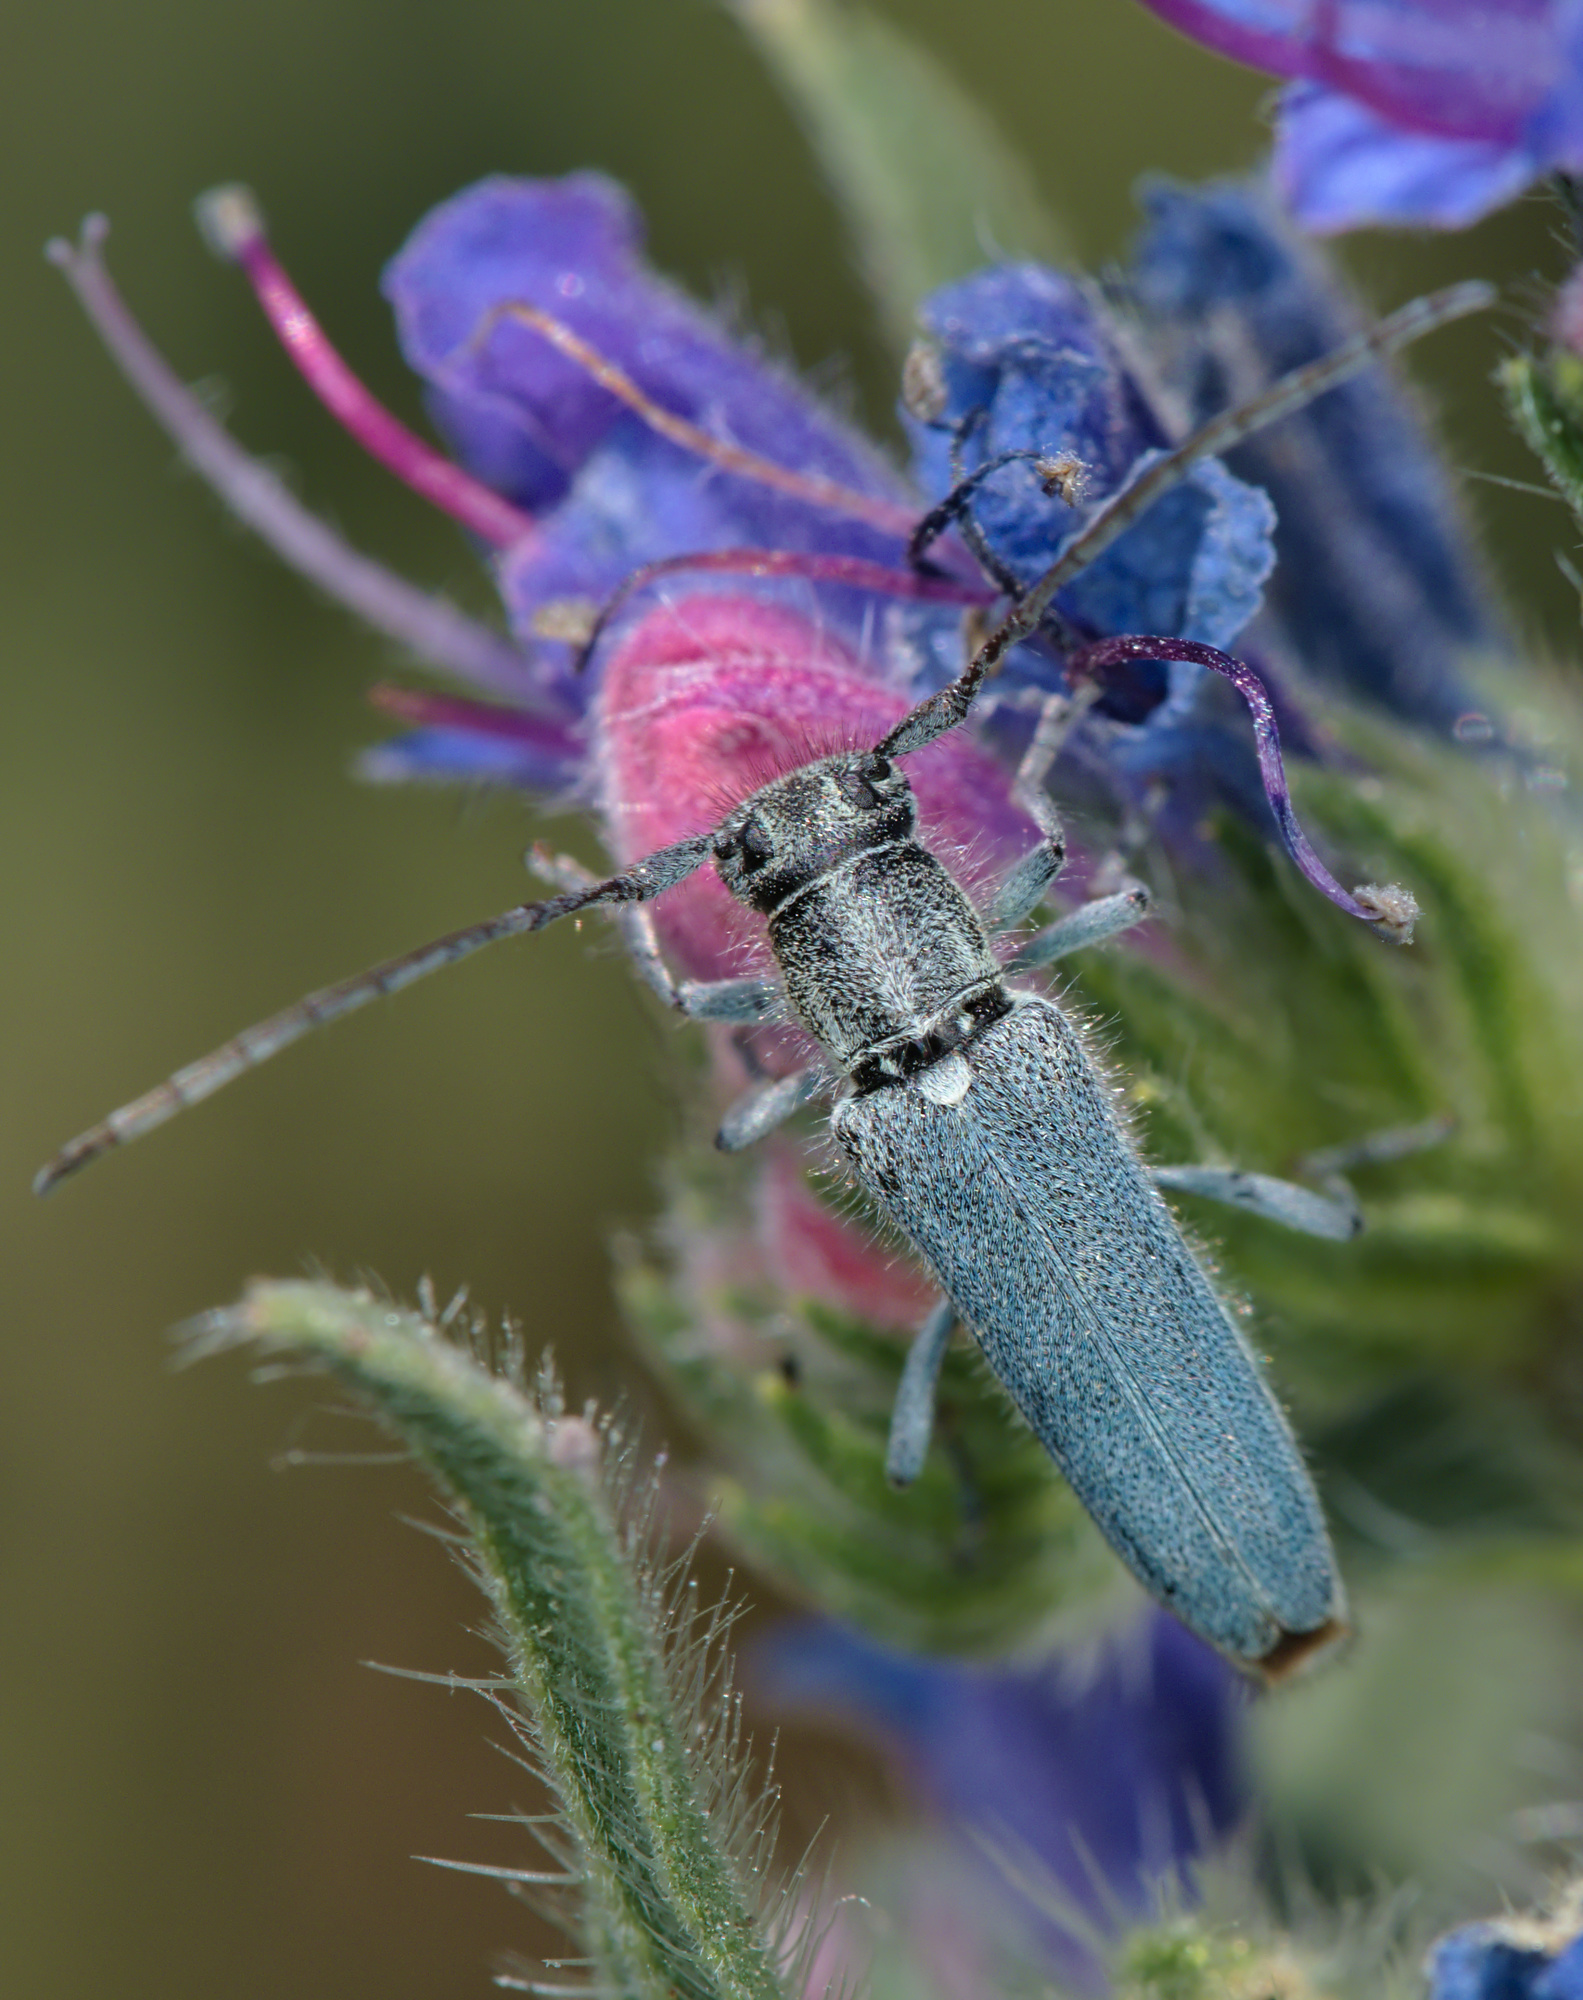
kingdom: Animalia
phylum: Arthropoda
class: Insecta
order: Coleoptera
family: Cerambycidae
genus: Phytoecia
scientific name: Phytoecia coerulescens
